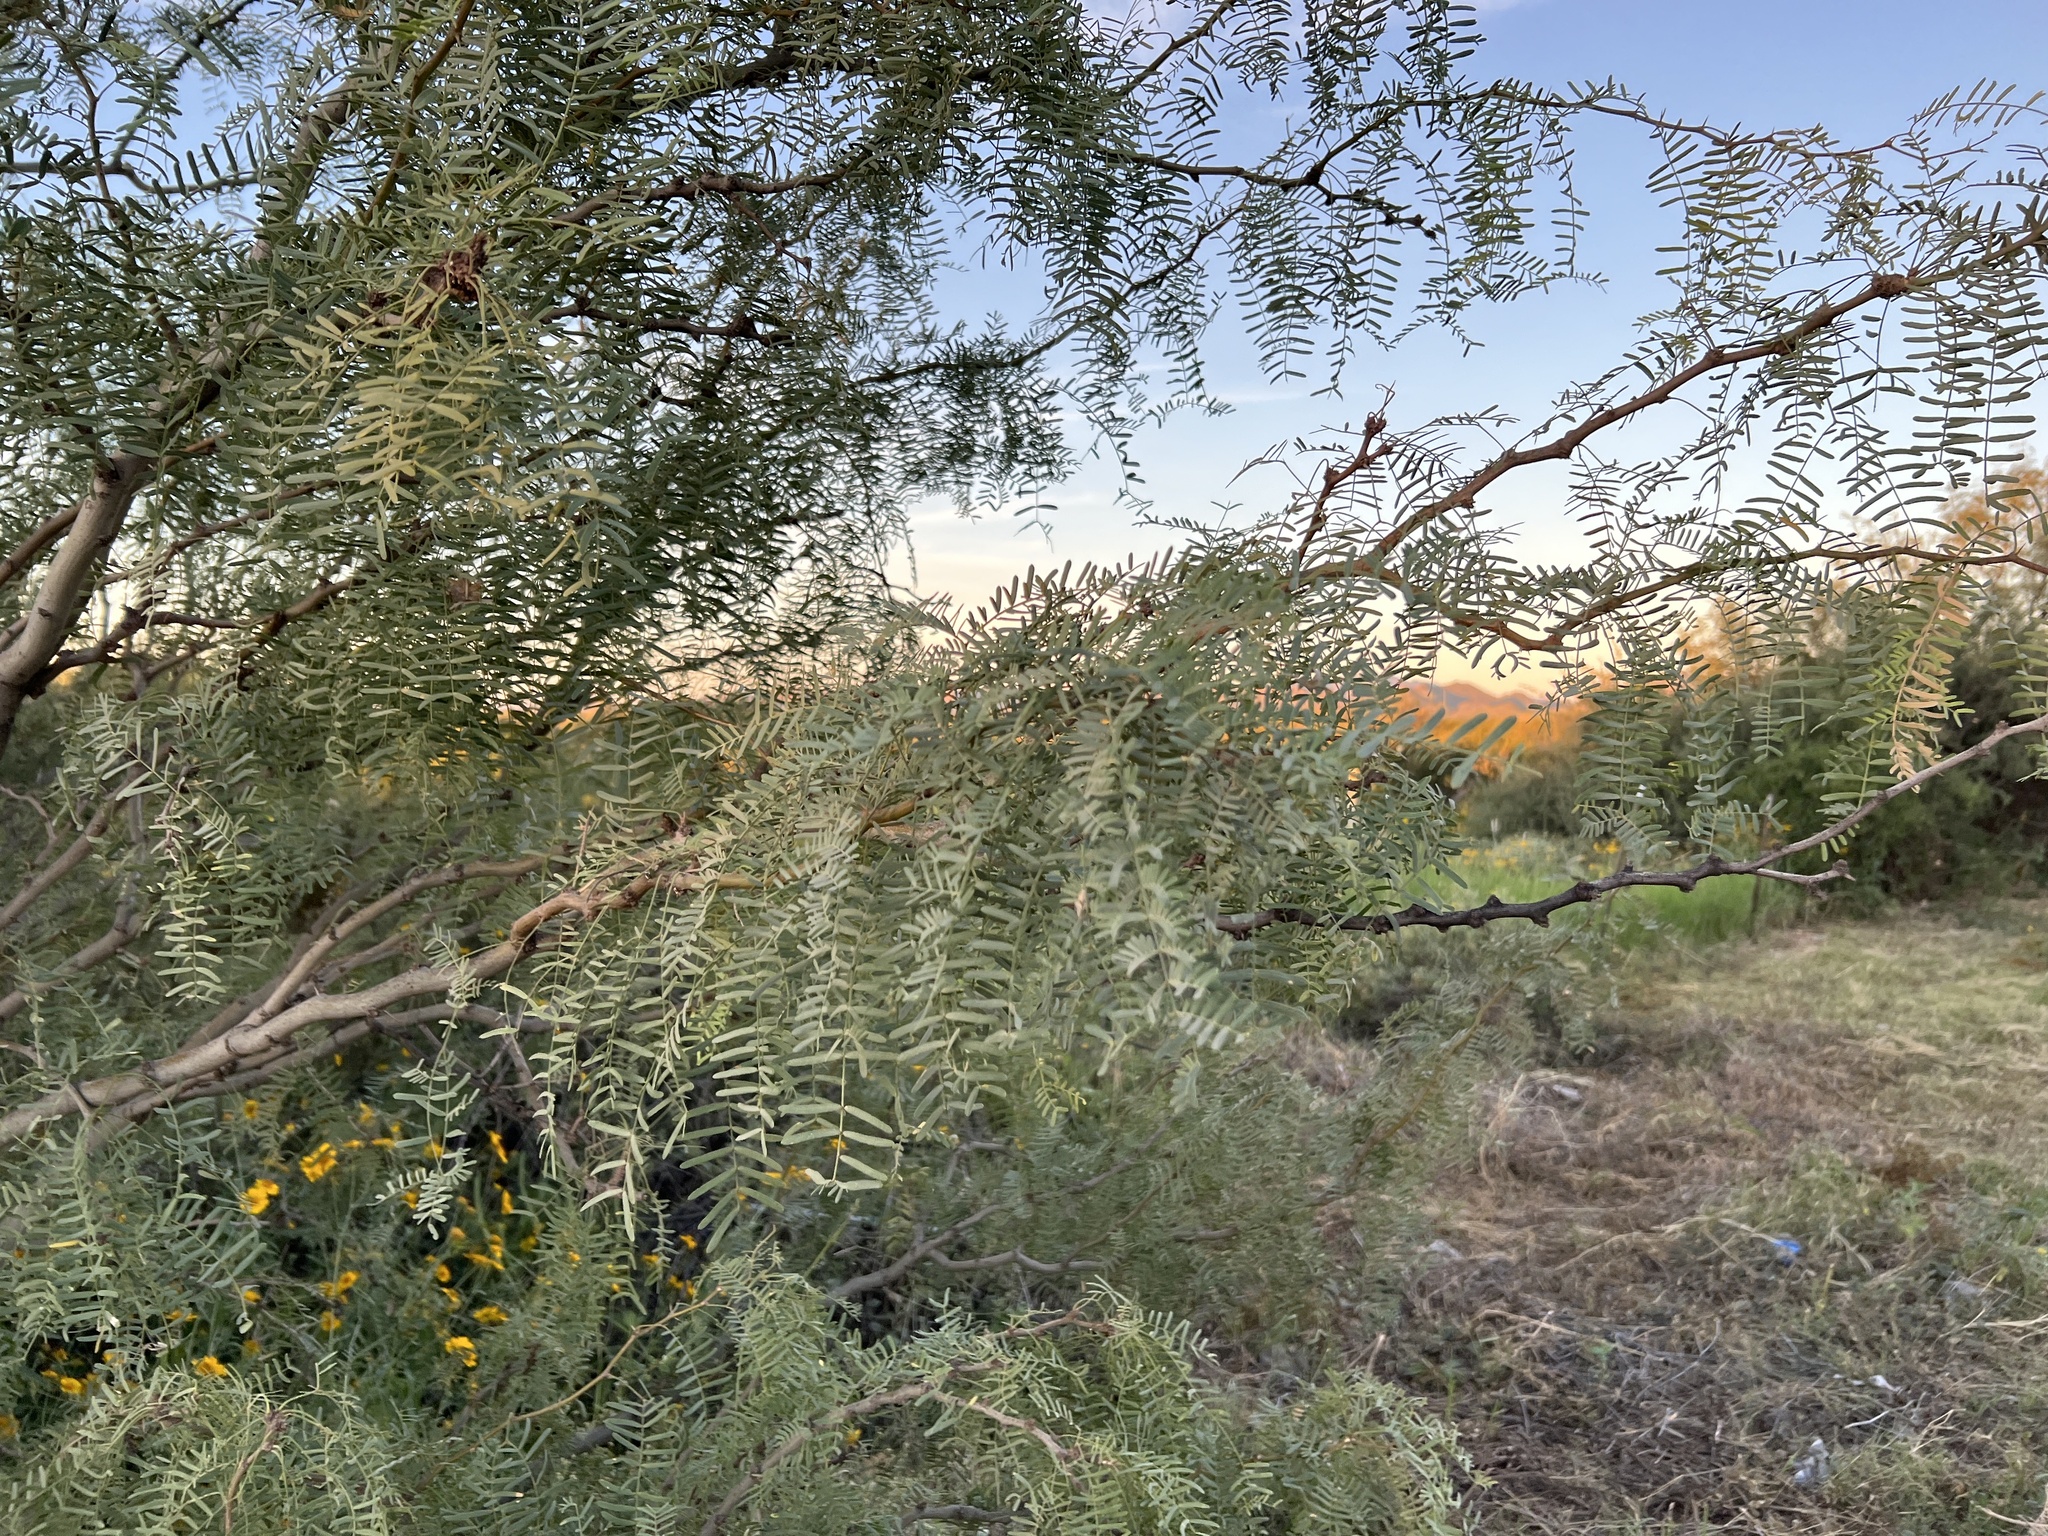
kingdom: Plantae
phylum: Tracheophyta
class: Magnoliopsida
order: Fabales
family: Fabaceae
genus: Prosopis
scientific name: Prosopis glandulosa
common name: Honey mesquite
